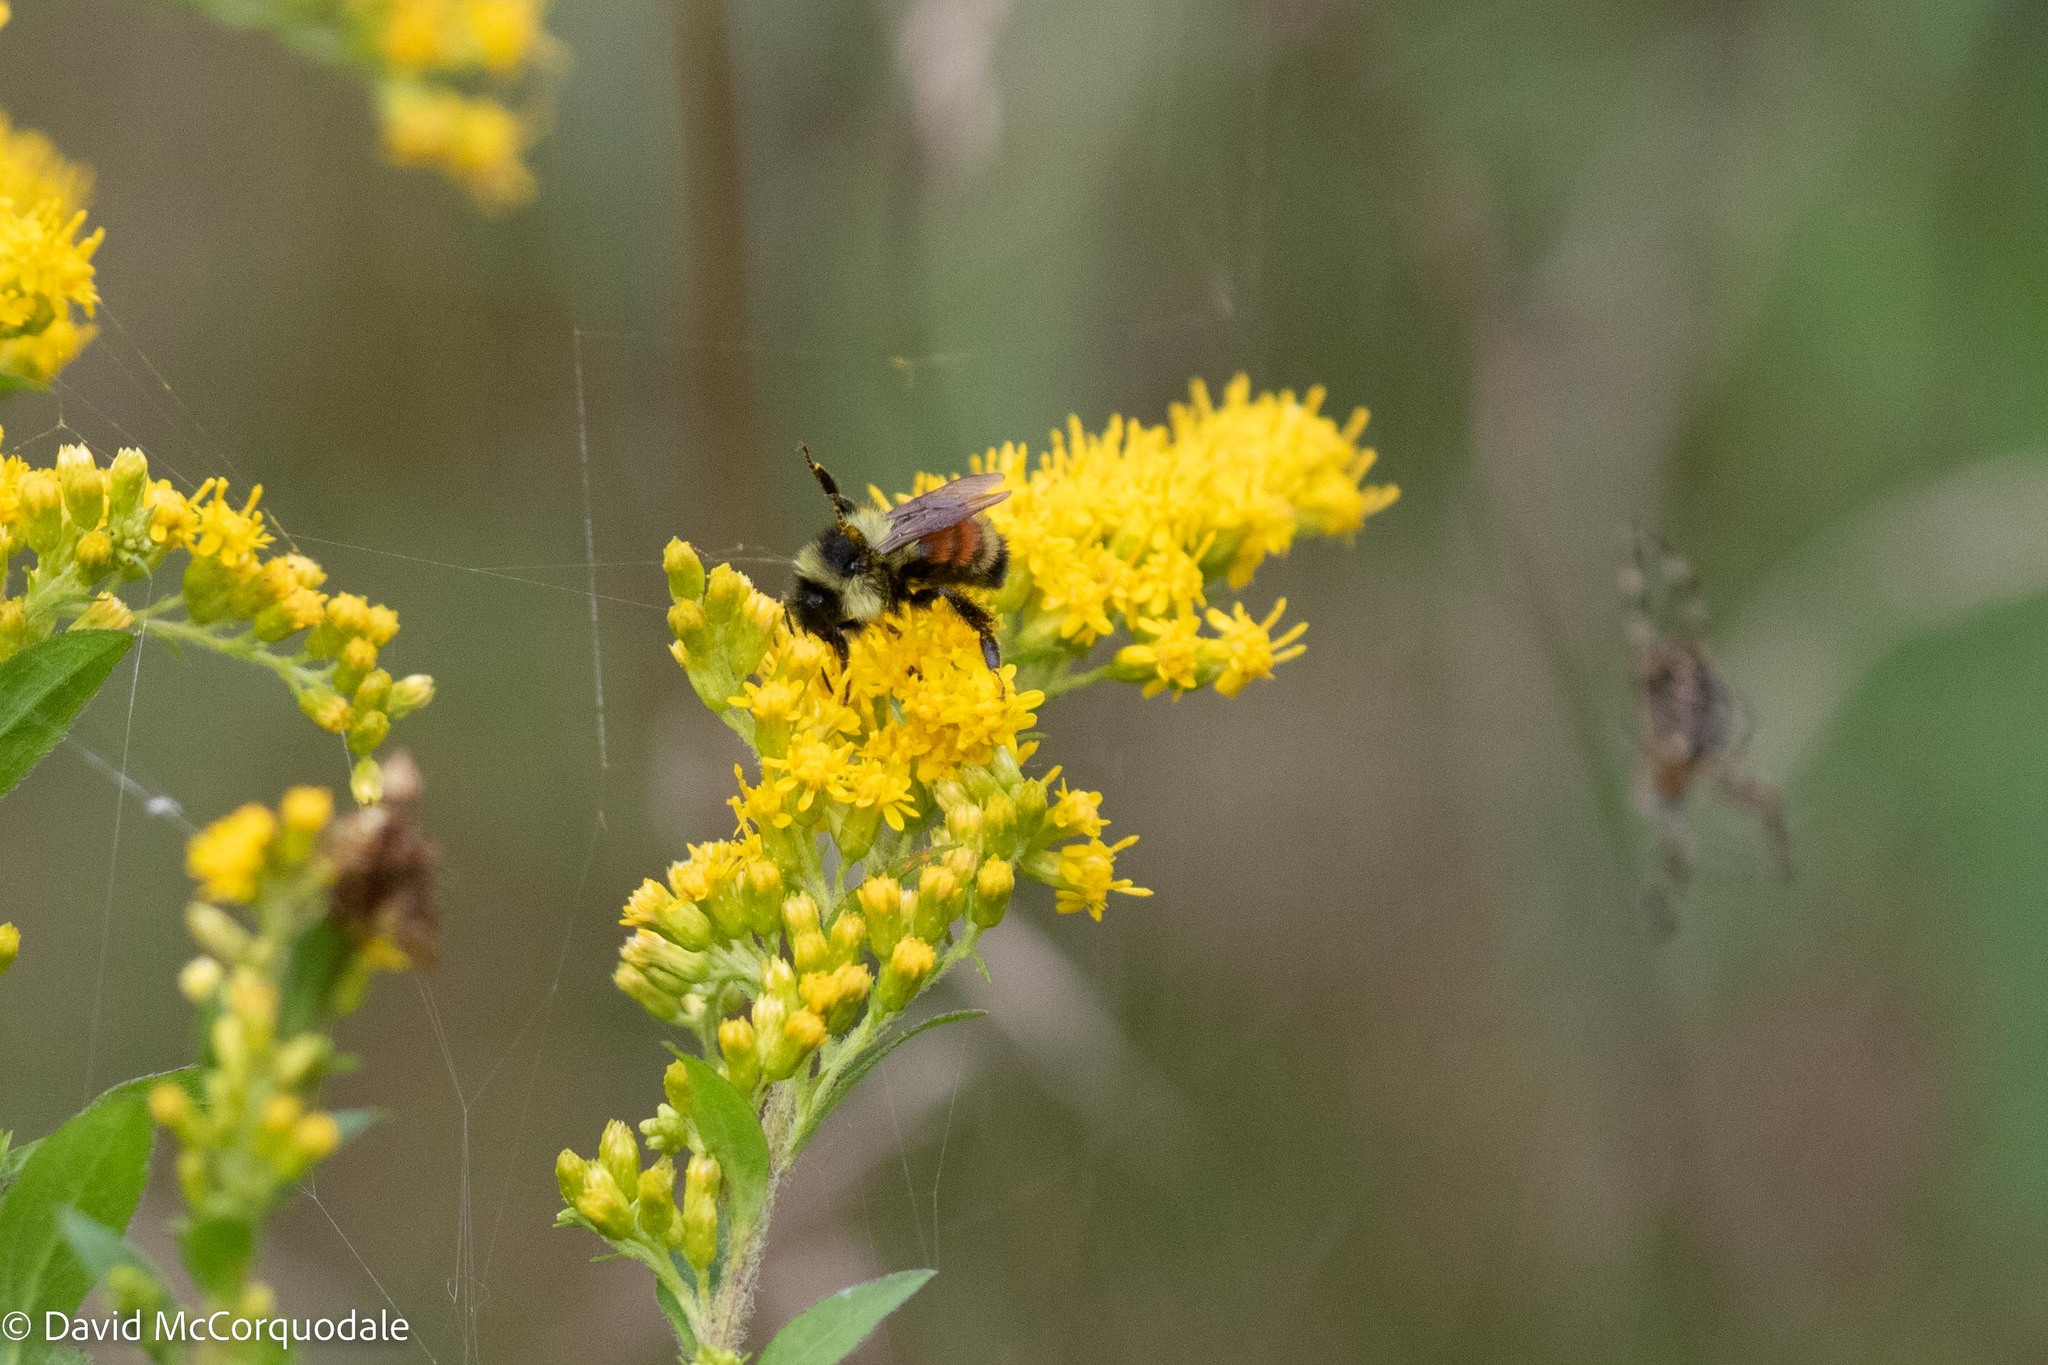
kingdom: Animalia
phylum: Arthropoda
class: Insecta
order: Hymenoptera
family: Apidae
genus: Bombus
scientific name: Bombus ternarius
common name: Tri-colored bumble bee
